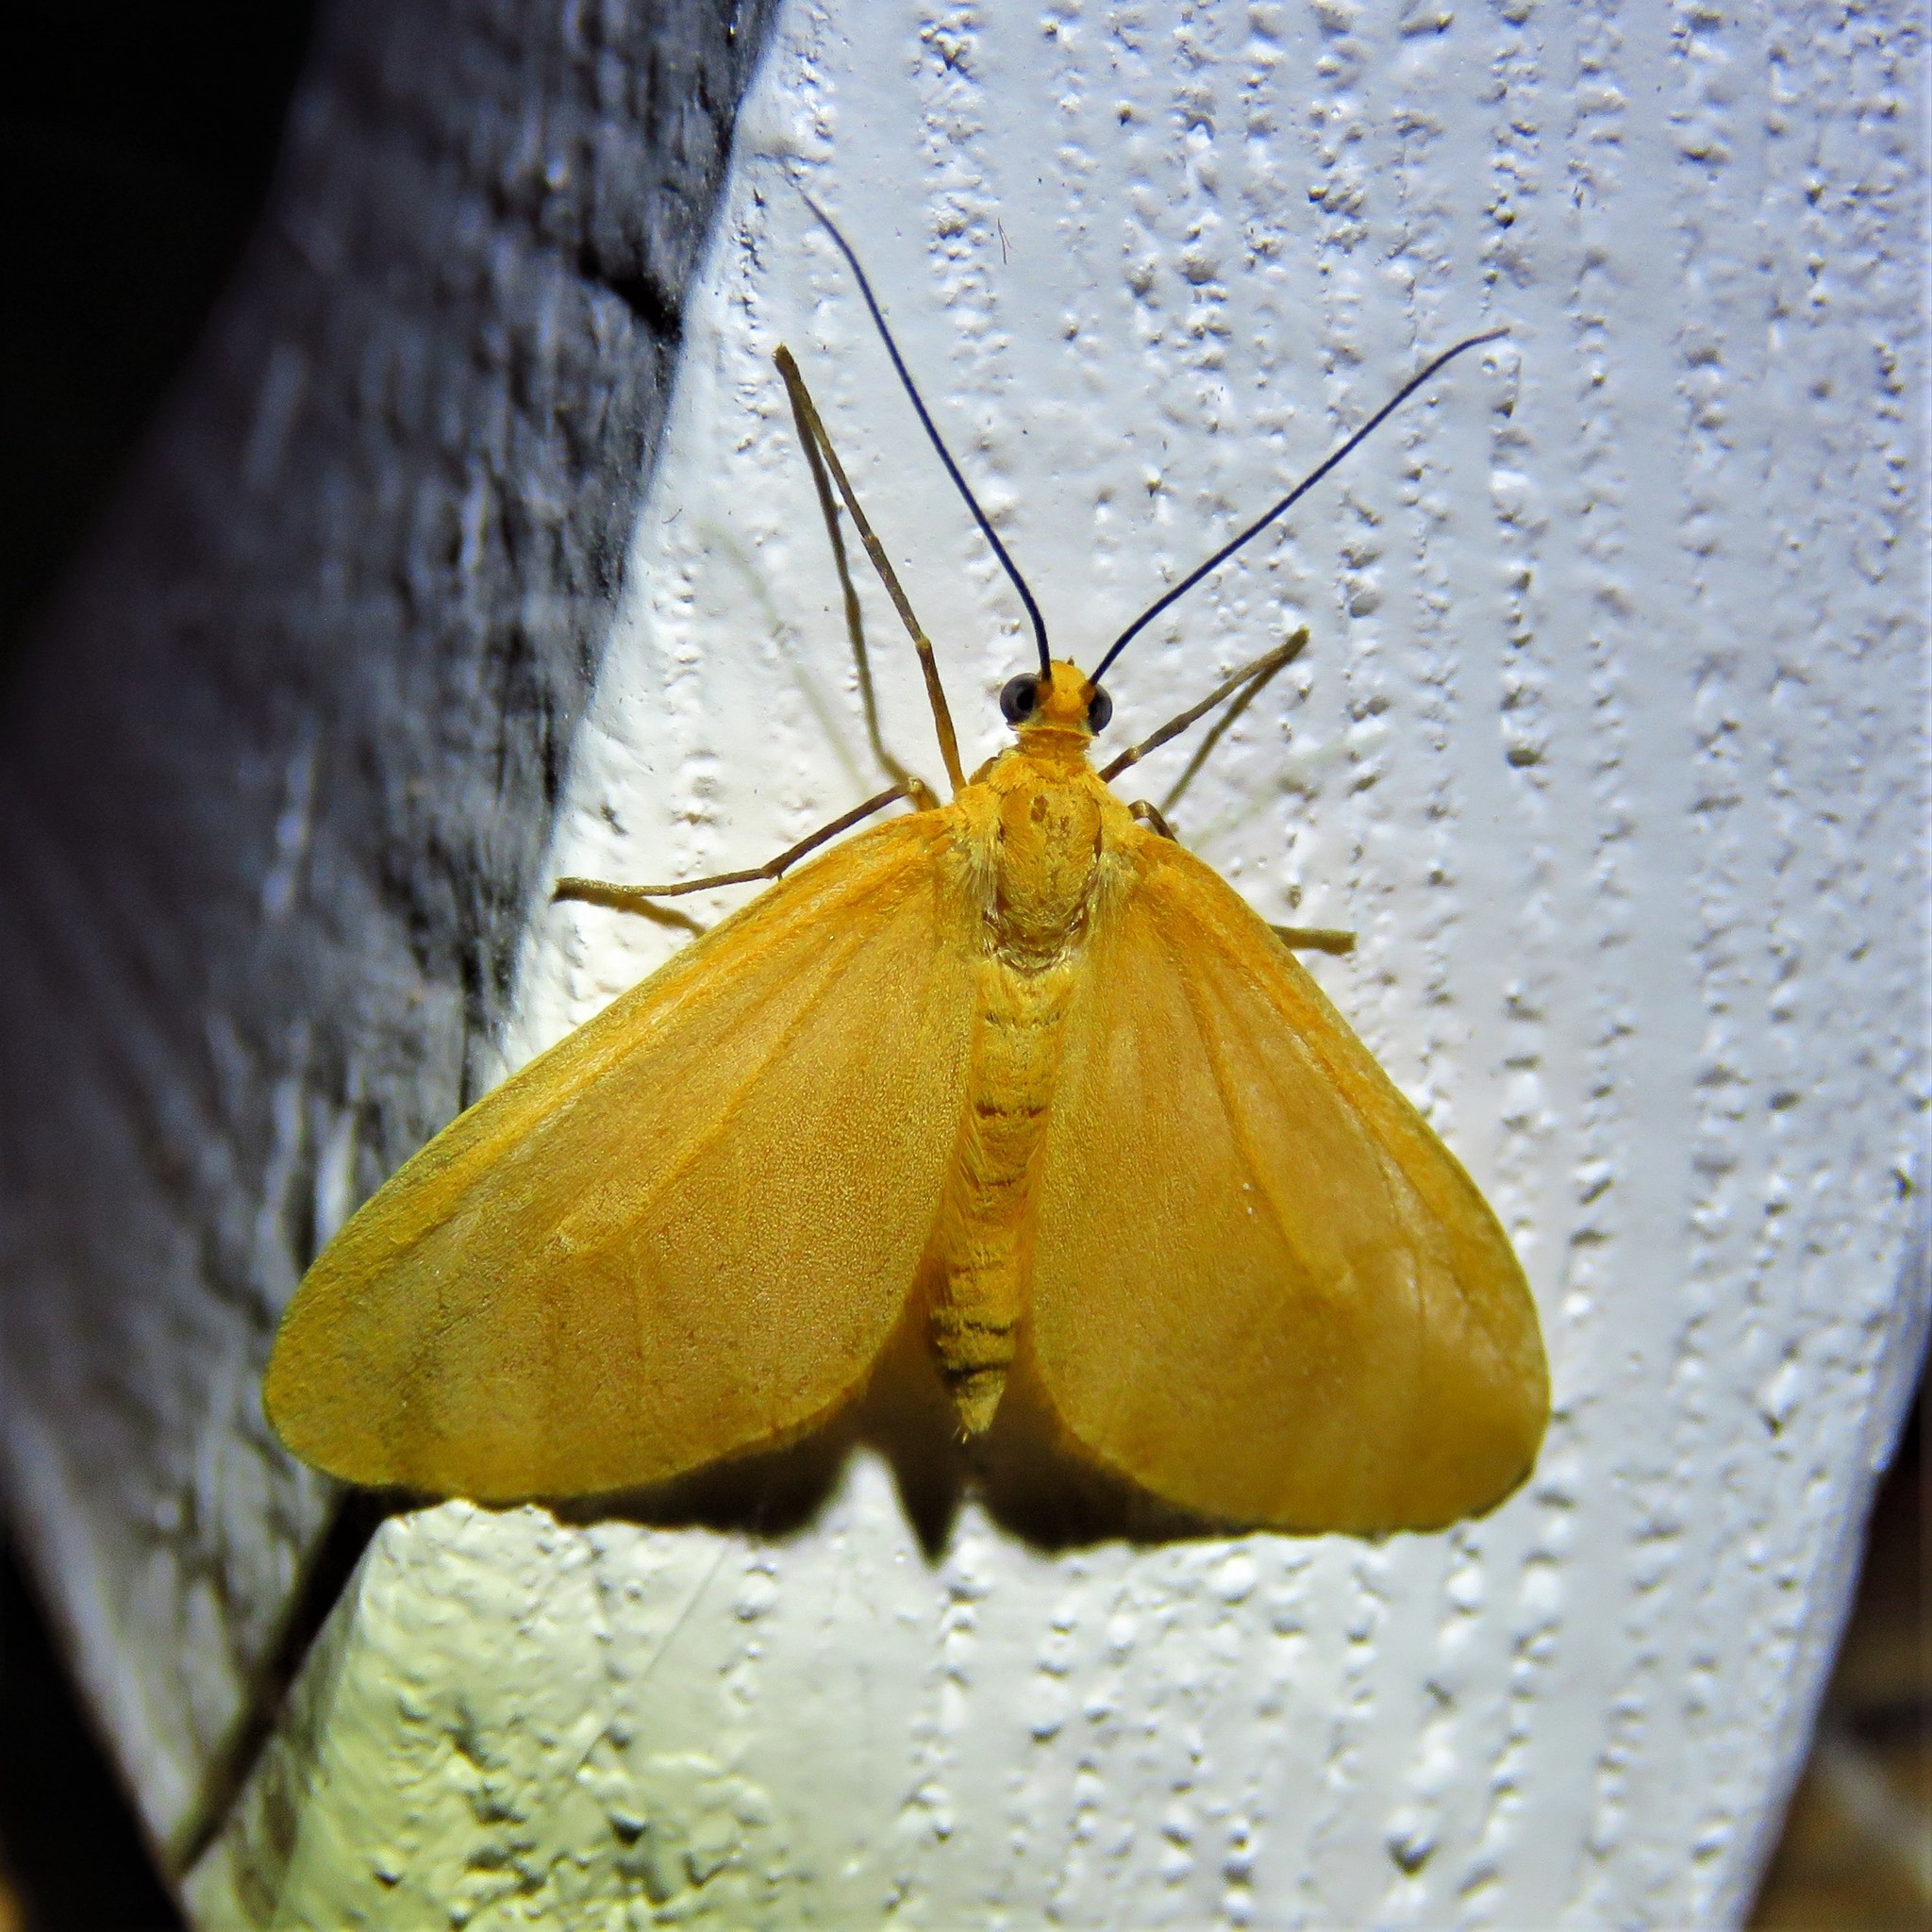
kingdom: Animalia
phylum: Arthropoda
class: Insecta
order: Lepidoptera
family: Geometridae
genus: Eubaphe
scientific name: Eubaphe unicolor
